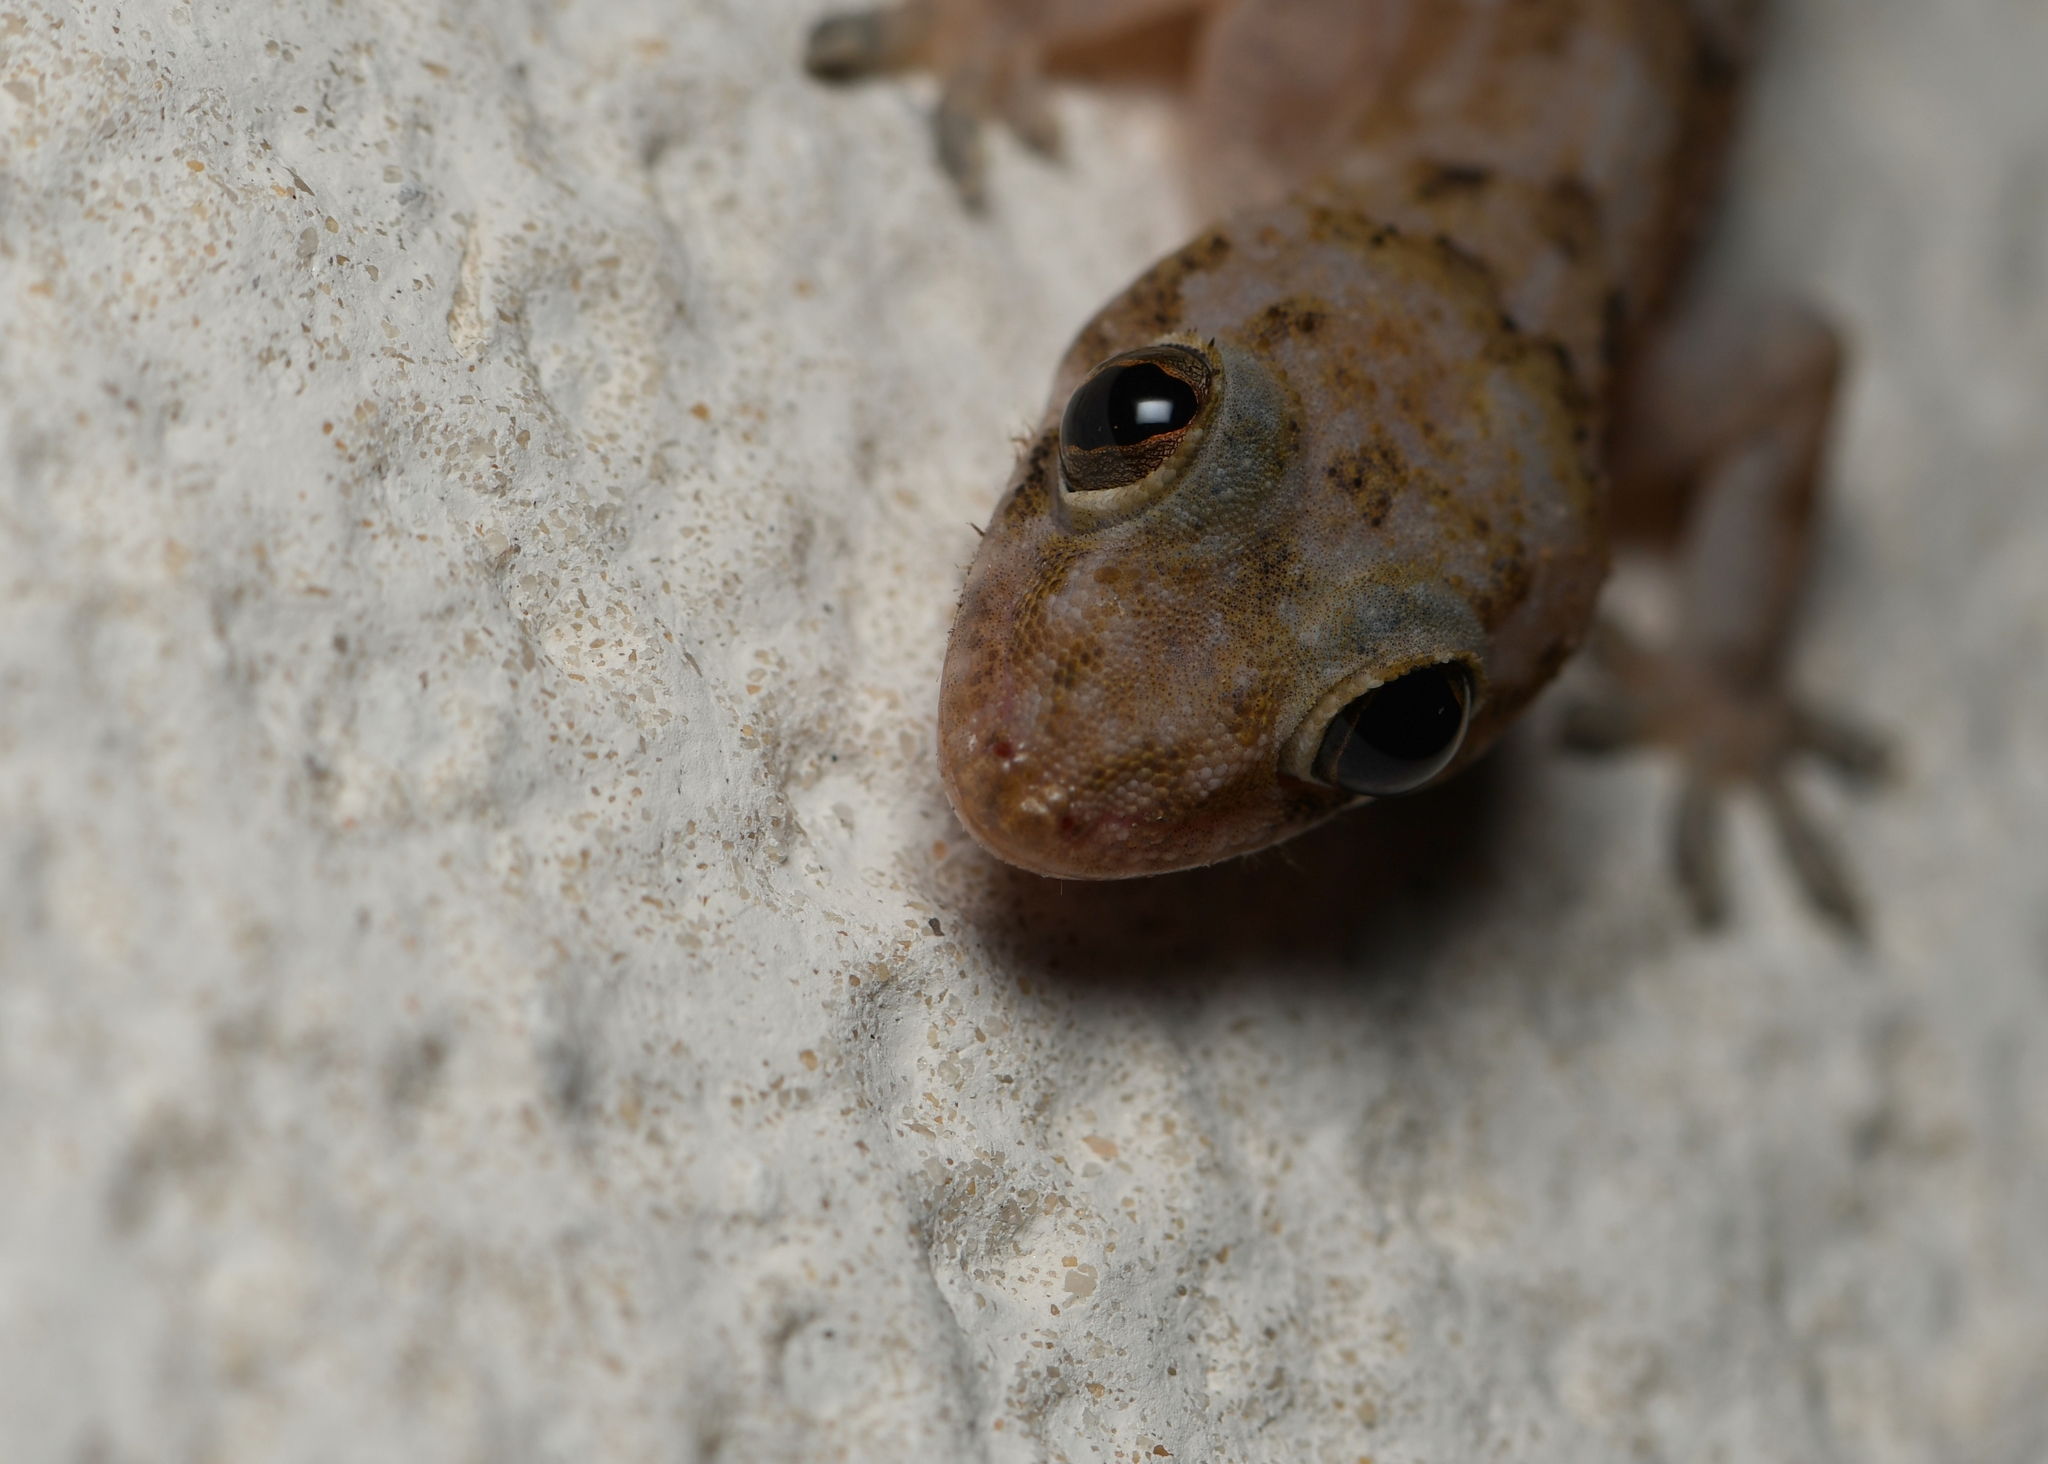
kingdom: Animalia
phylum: Chordata
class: Squamata
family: Gekkonidae
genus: Hemidactylus
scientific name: Hemidactylus mabouia
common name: House gecko
